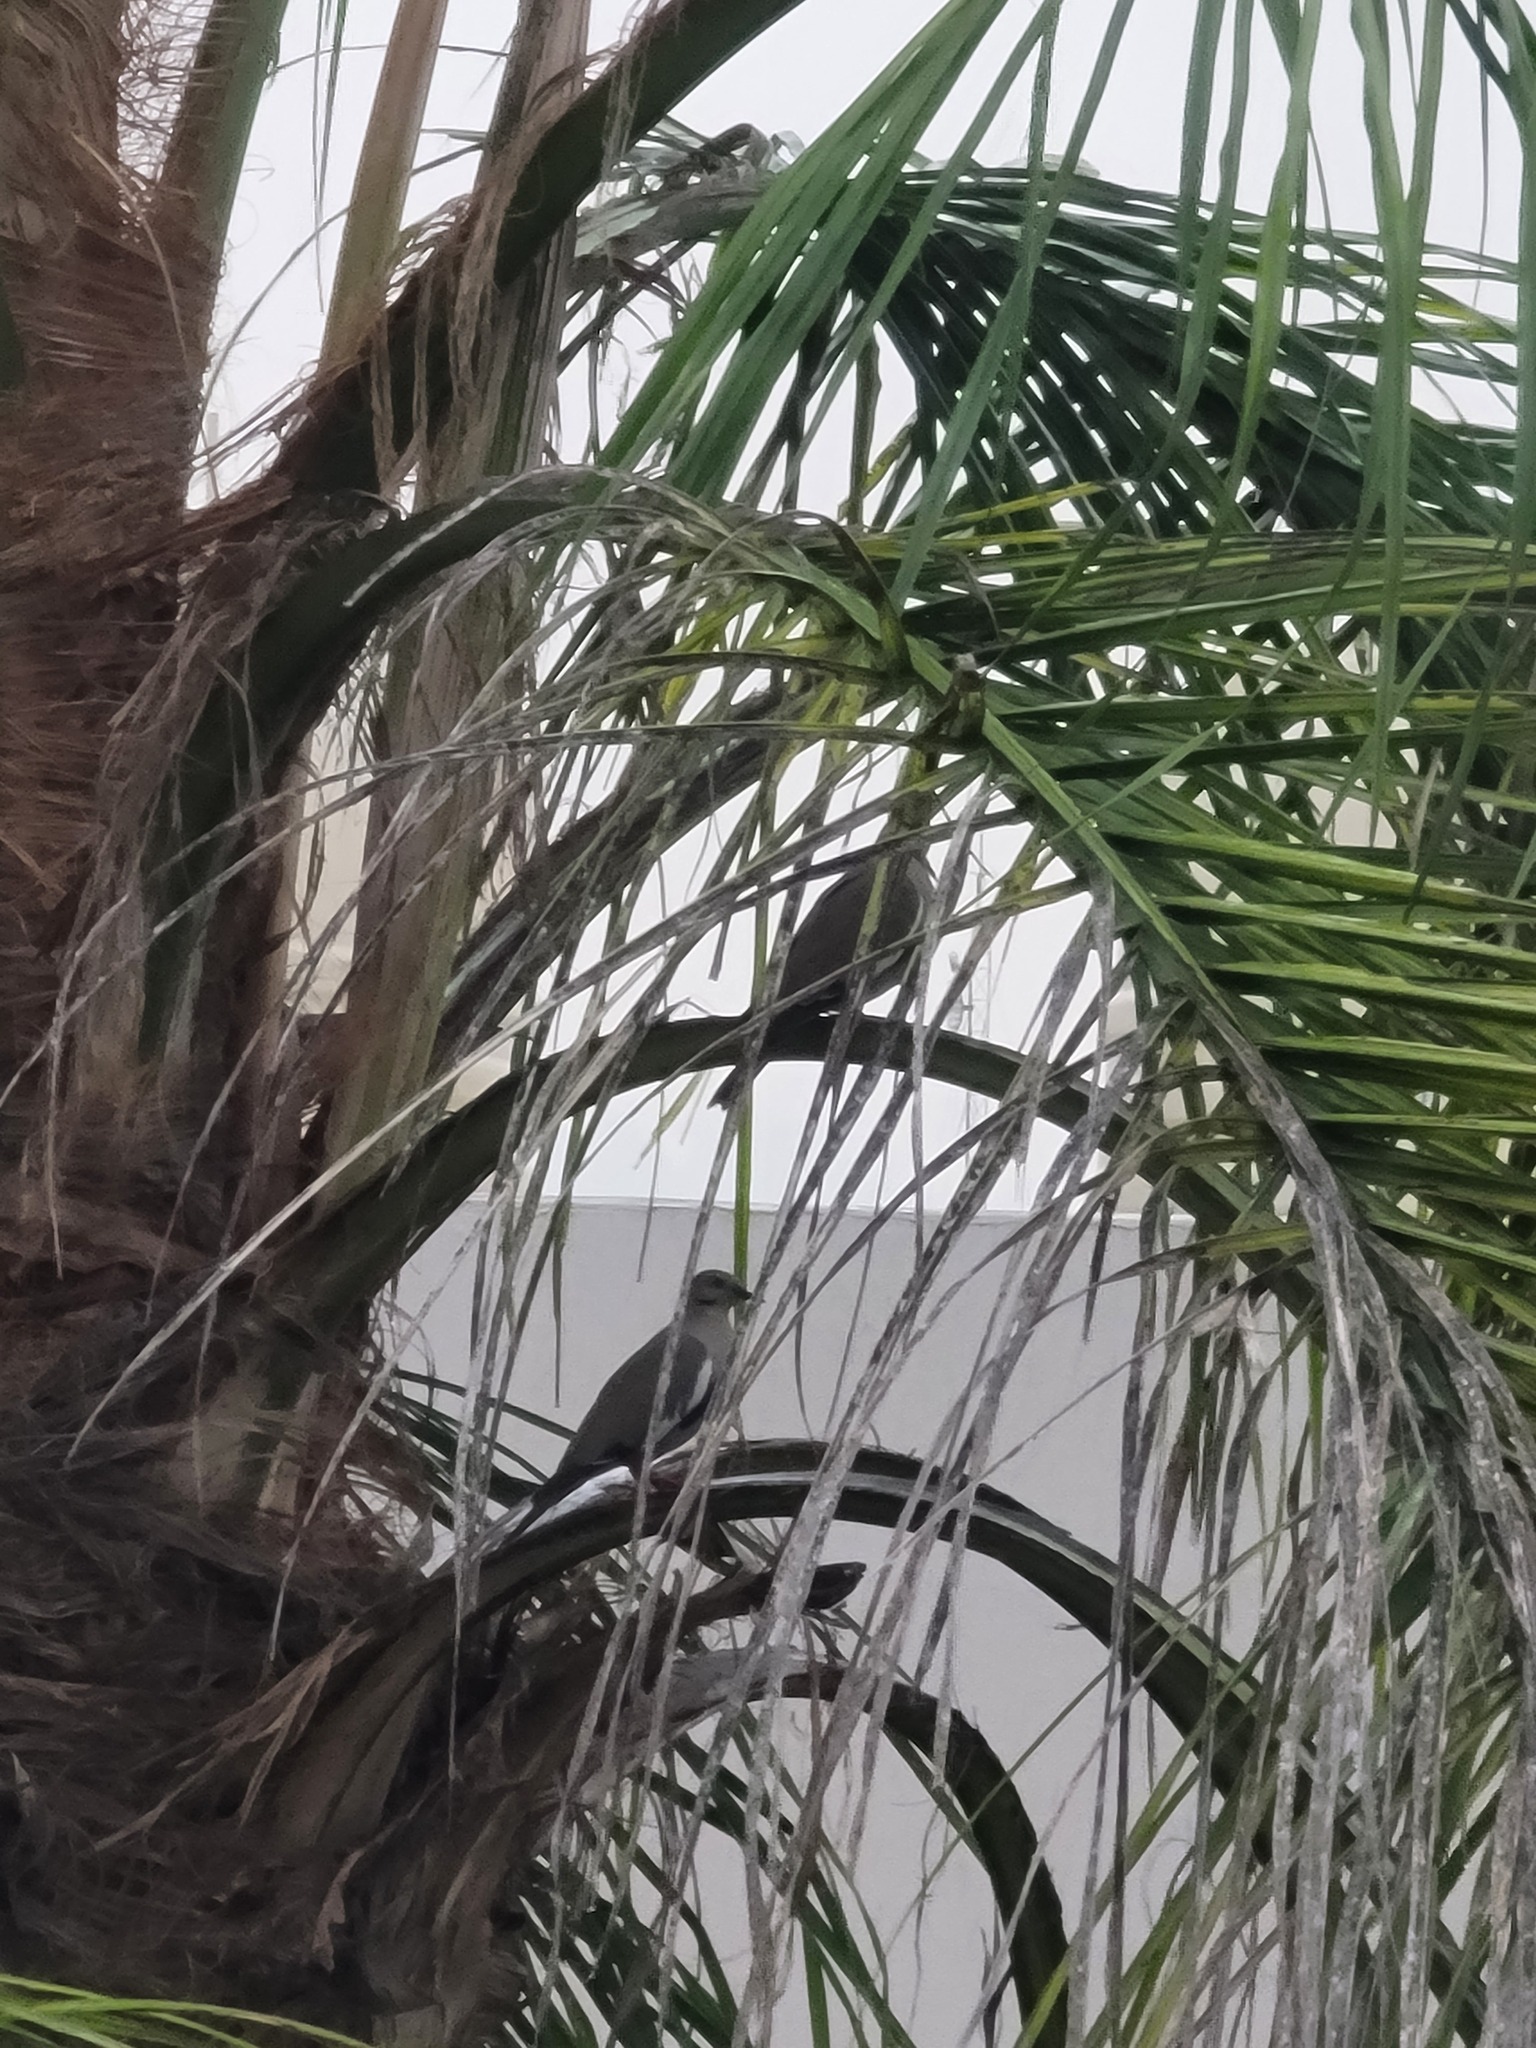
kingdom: Animalia
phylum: Chordata
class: Aves
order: Columbiformes
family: Columbidae
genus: Zenaida
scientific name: Zenaida asiatica
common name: White-winged dove
